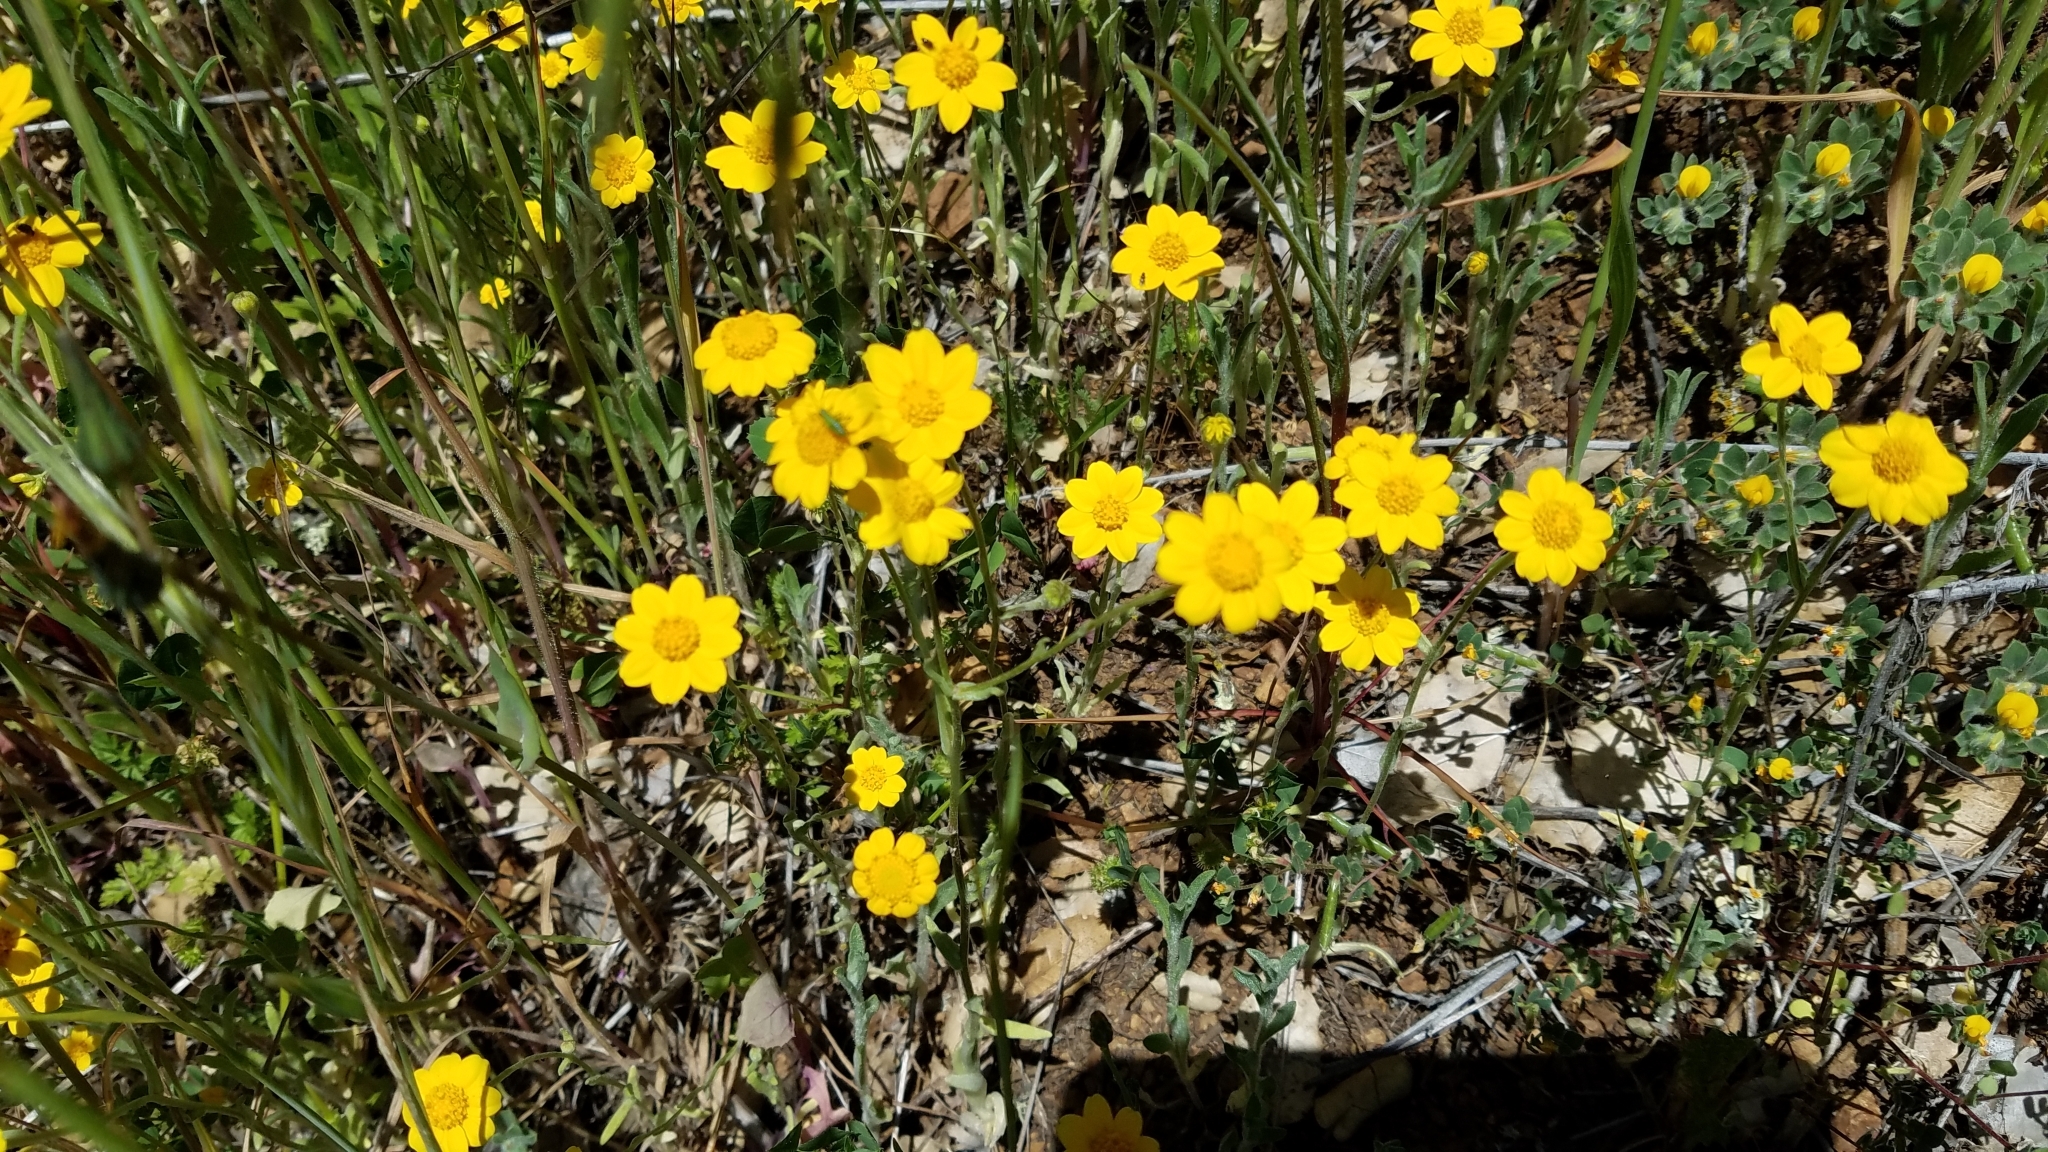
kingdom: Plantae
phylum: Tracheophyta
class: Magnoliopsida
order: Asterales
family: Asteraceae
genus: Lasthenia
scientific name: Lasthenia californica
